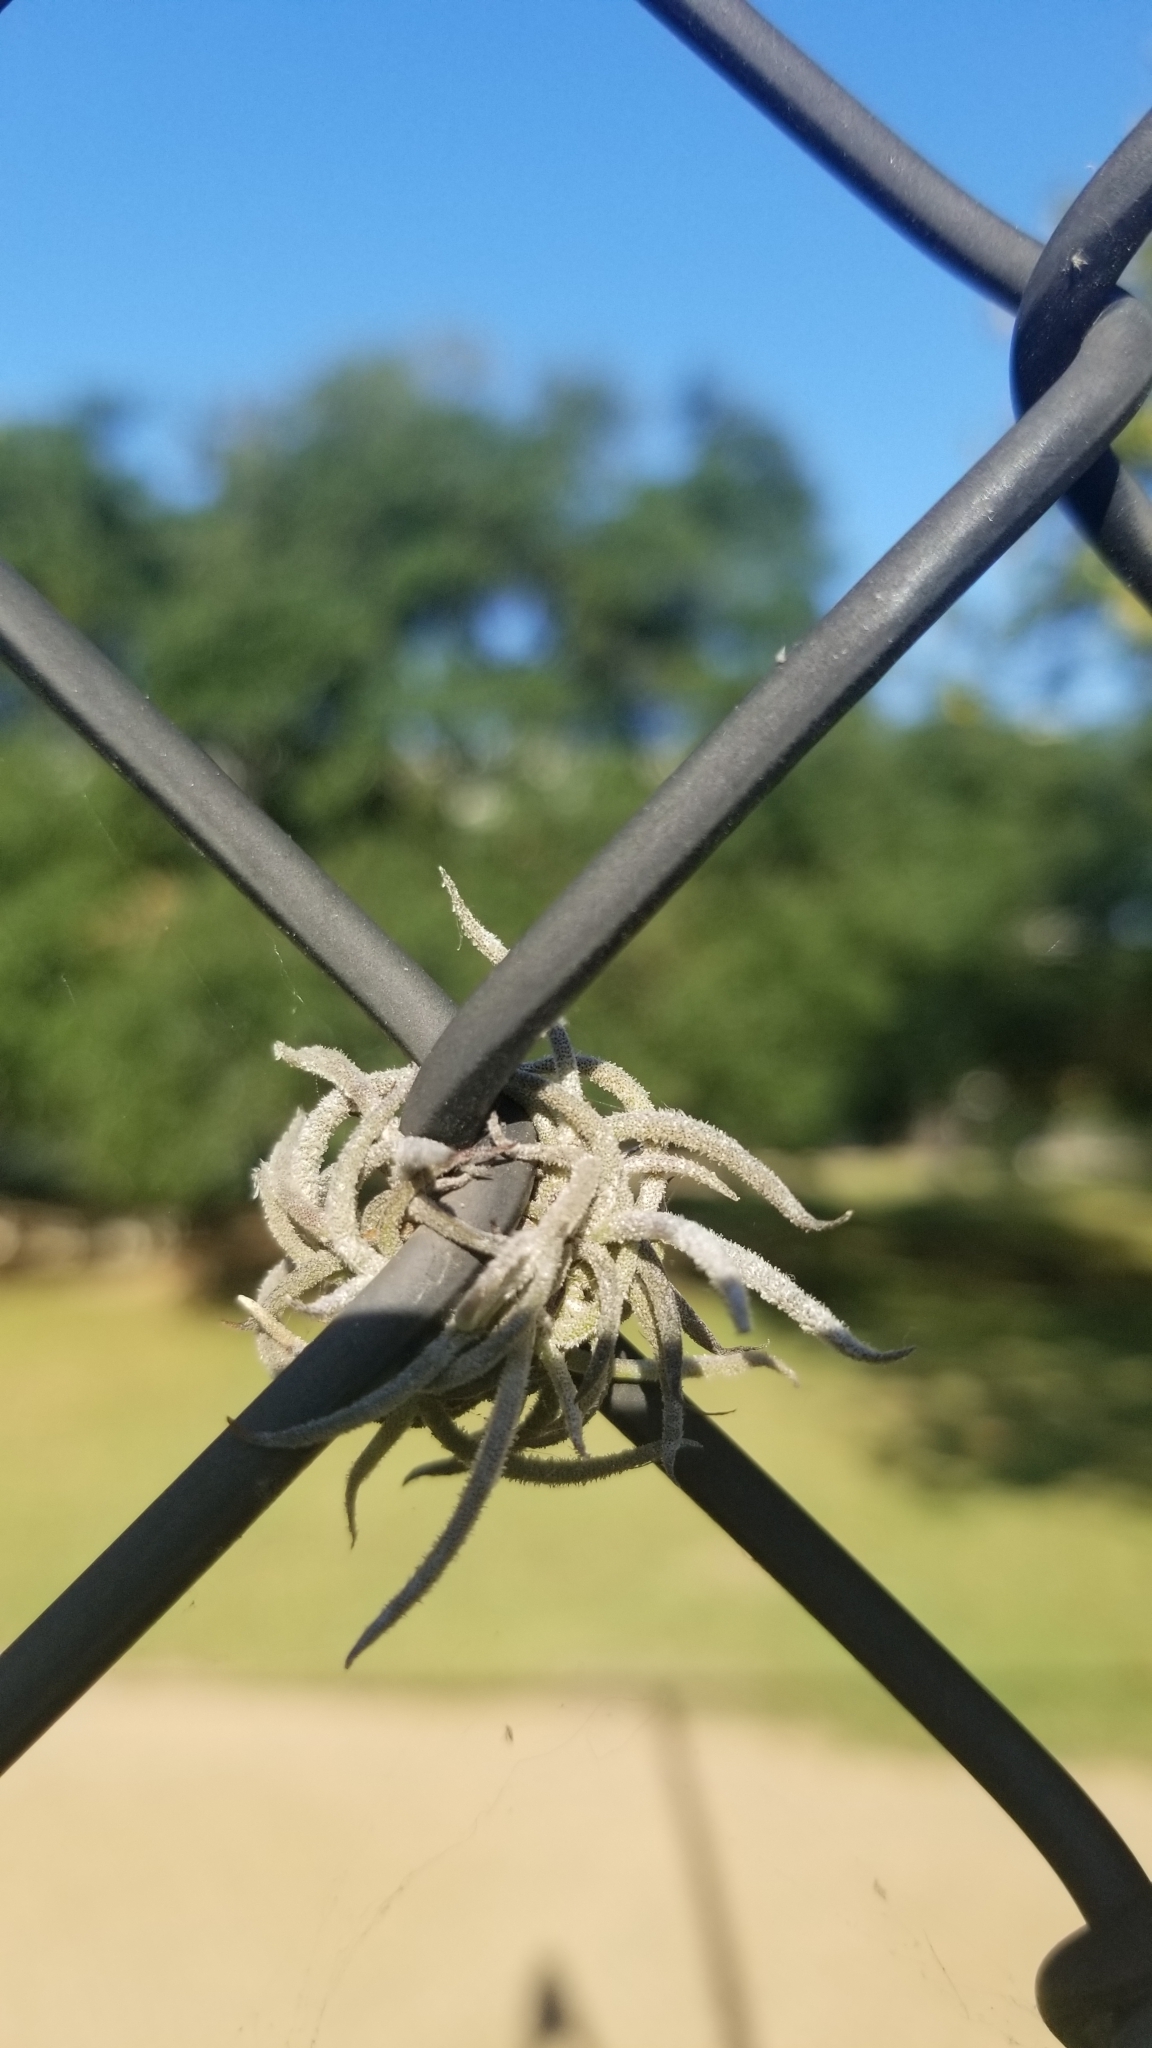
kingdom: Plantae
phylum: Tracheophyta
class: Liliopsida
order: Poales
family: Bromeliaceae
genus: Tillandsia
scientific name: Tillandsia recurvata
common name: Small ballmoss
